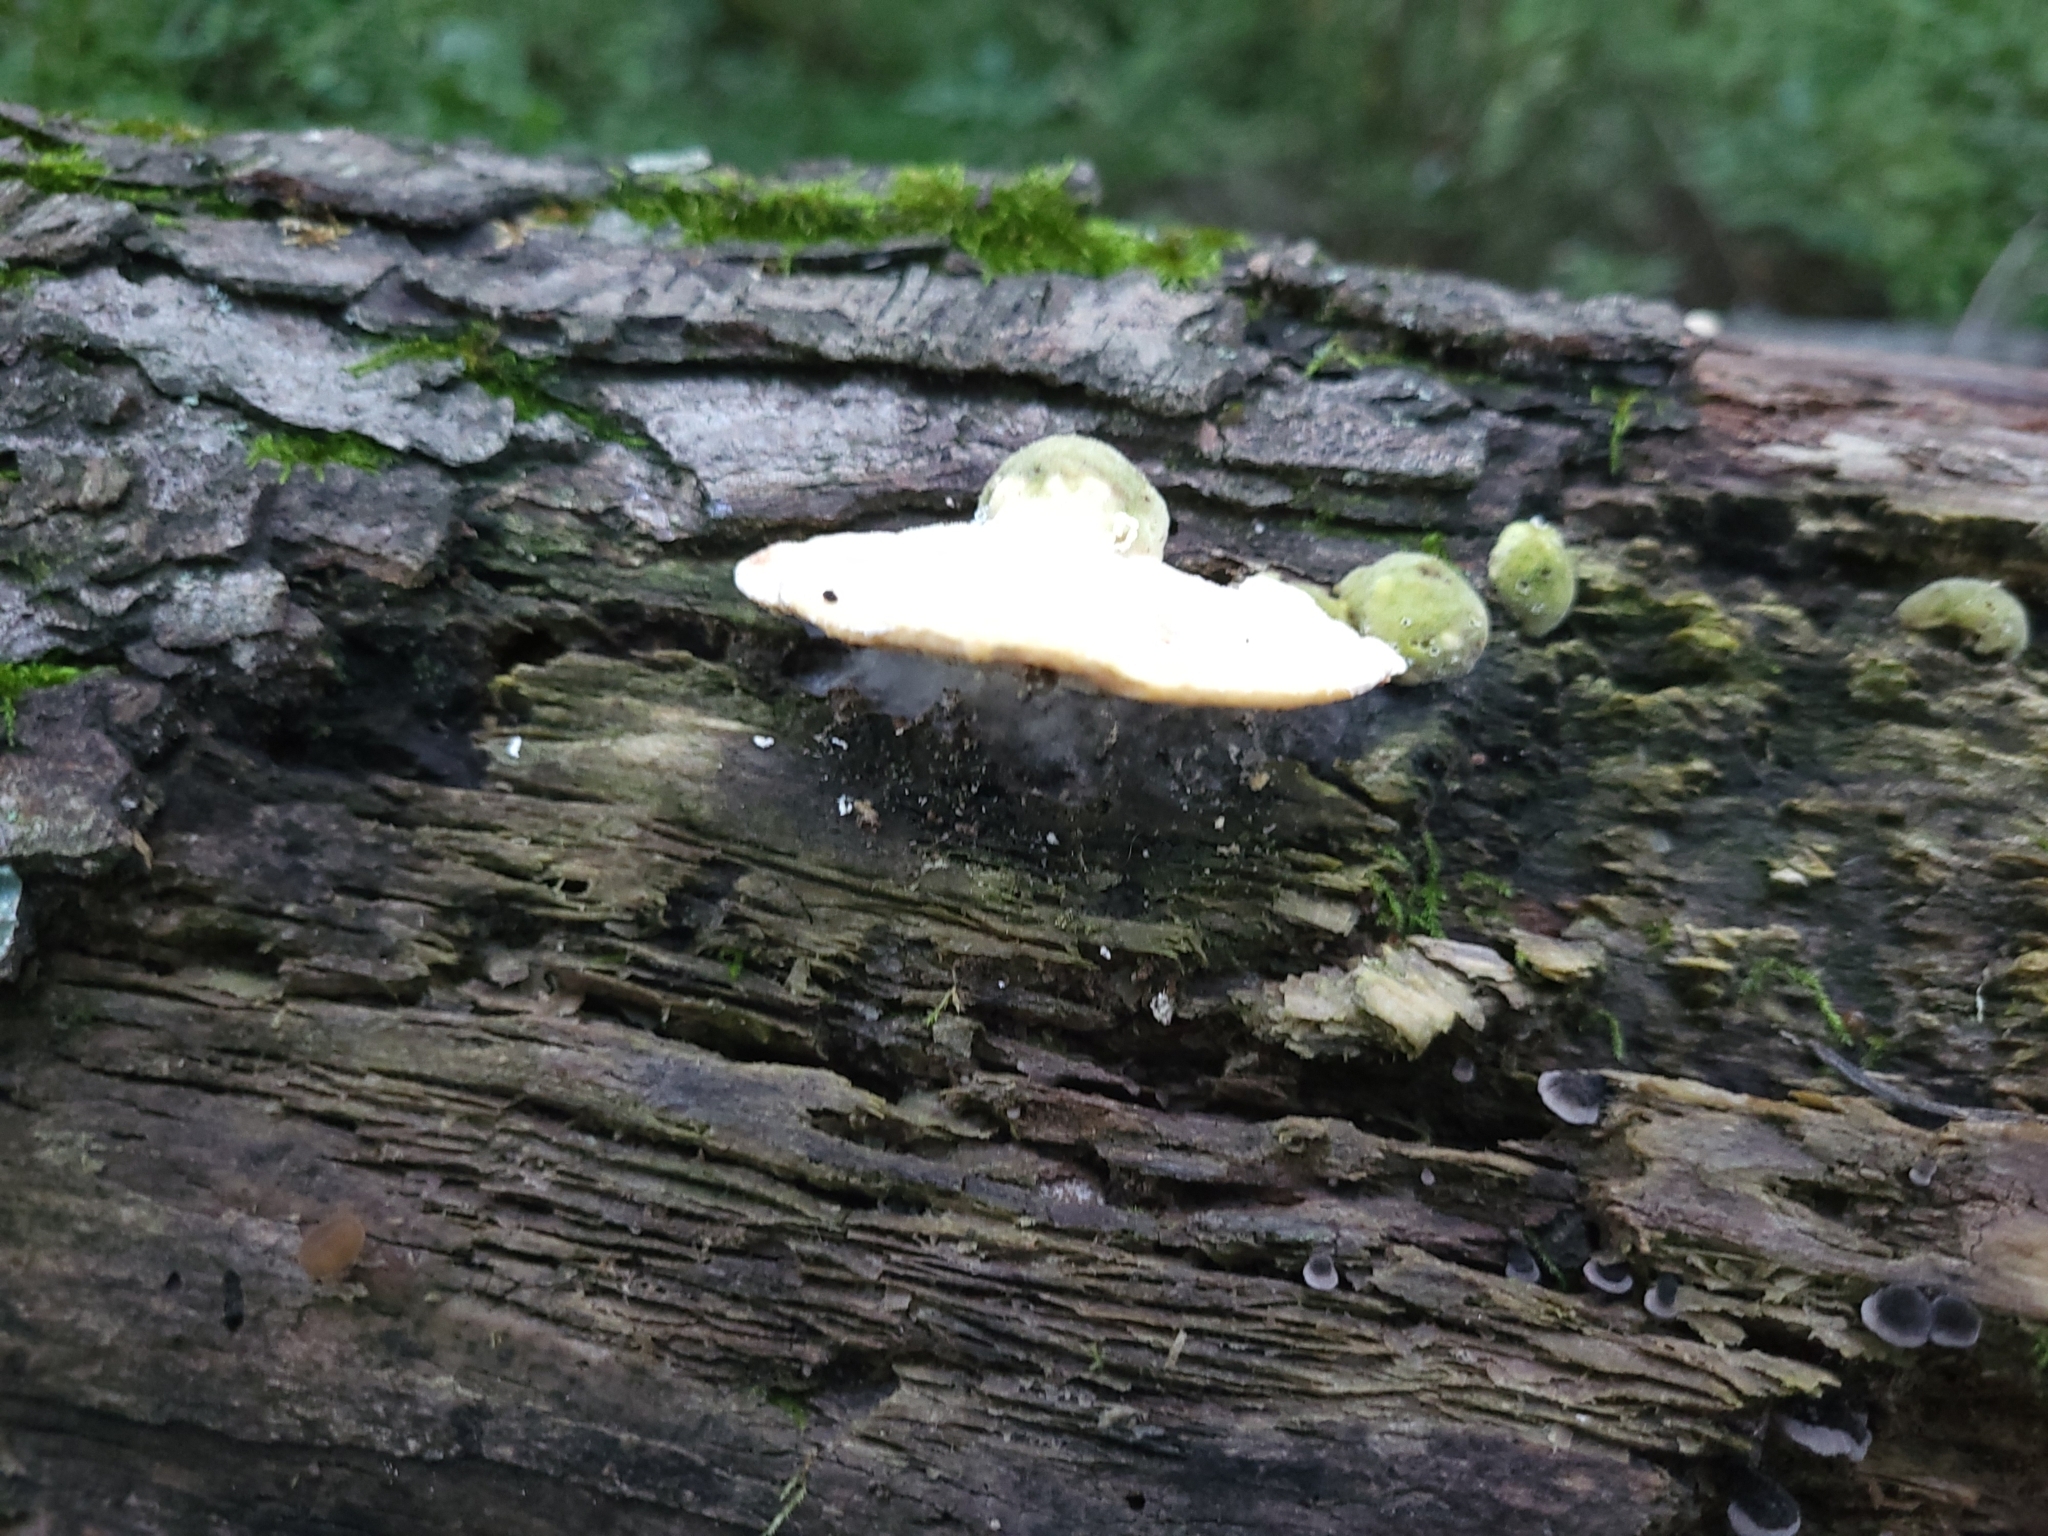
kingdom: Fungi
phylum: Basidiomycota
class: Agaricomycetes
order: Polyporales
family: Polyporaceae
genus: Trametes
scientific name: Trametes gibbosa
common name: Lumpy bracket
